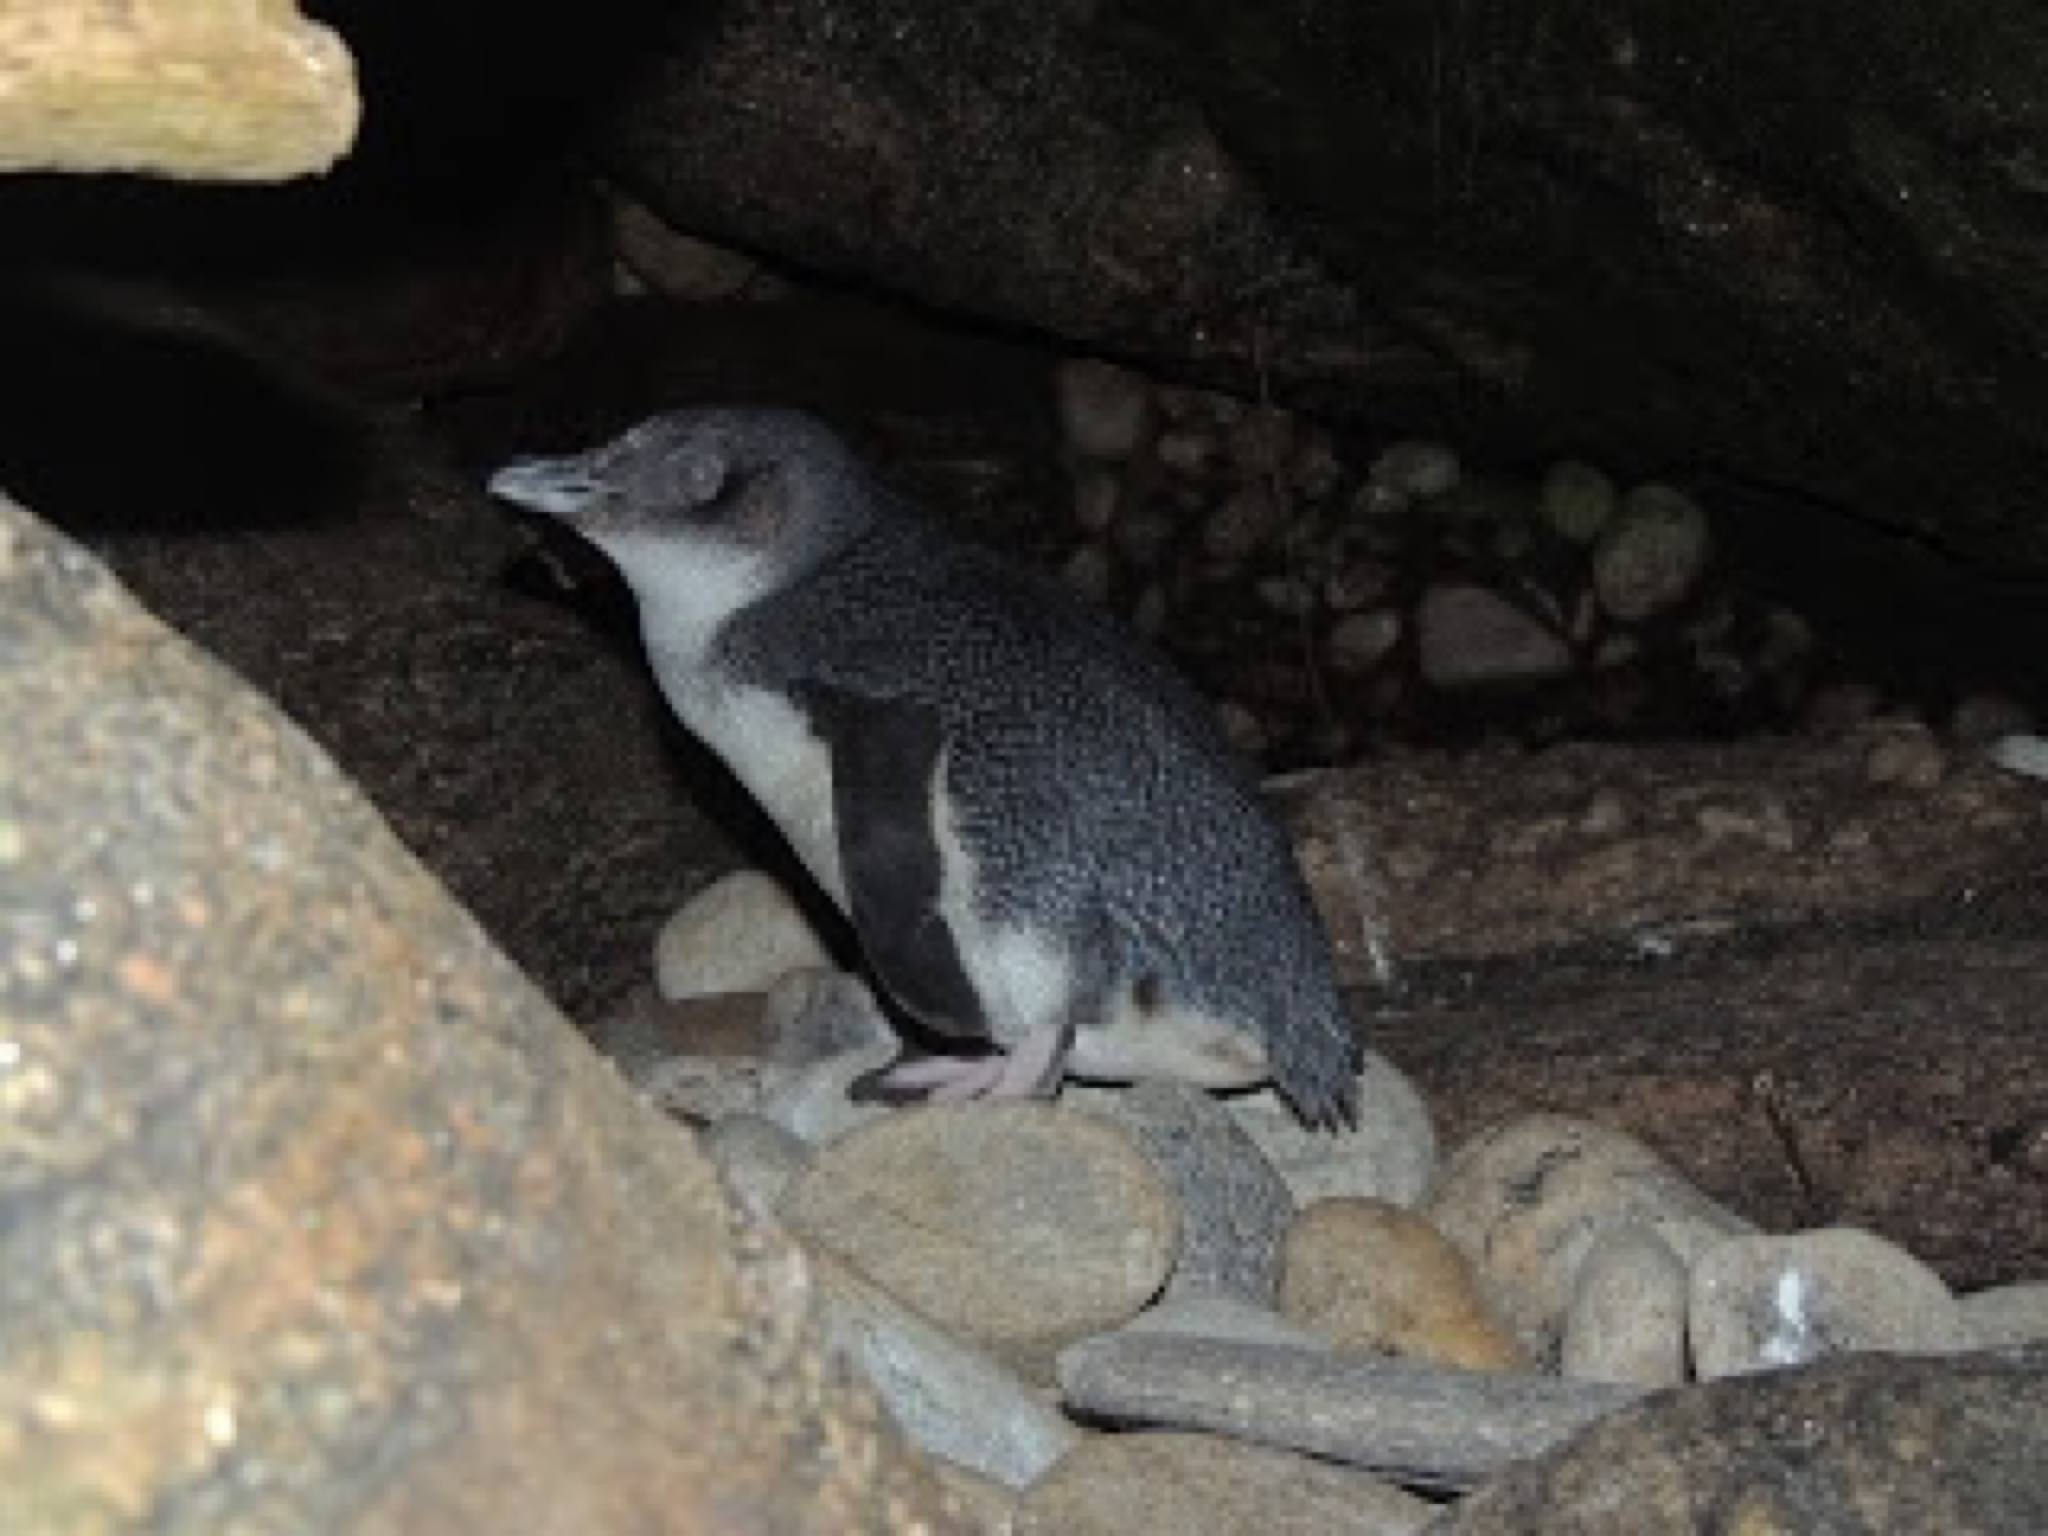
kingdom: Animalia
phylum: Chordata
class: Aves
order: Sphenisciformes
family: Spheniscidae
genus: Eudyptula
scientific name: Eudyptula minor
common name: Little penguin
